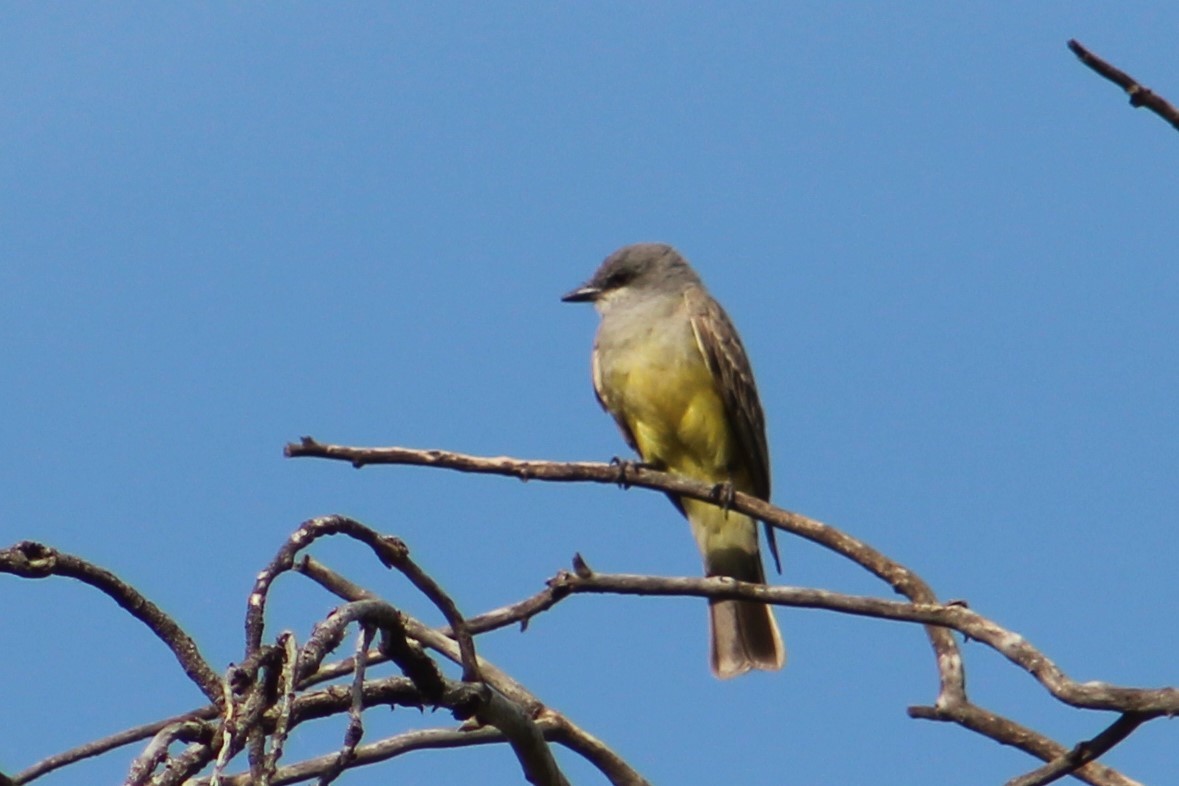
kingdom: Animalia
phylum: Chordata
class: Aves
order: Passeriformes
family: Tyrannidae
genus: Tyrannus
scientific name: Tyrannus vociferans
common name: Cassin's kingbird
